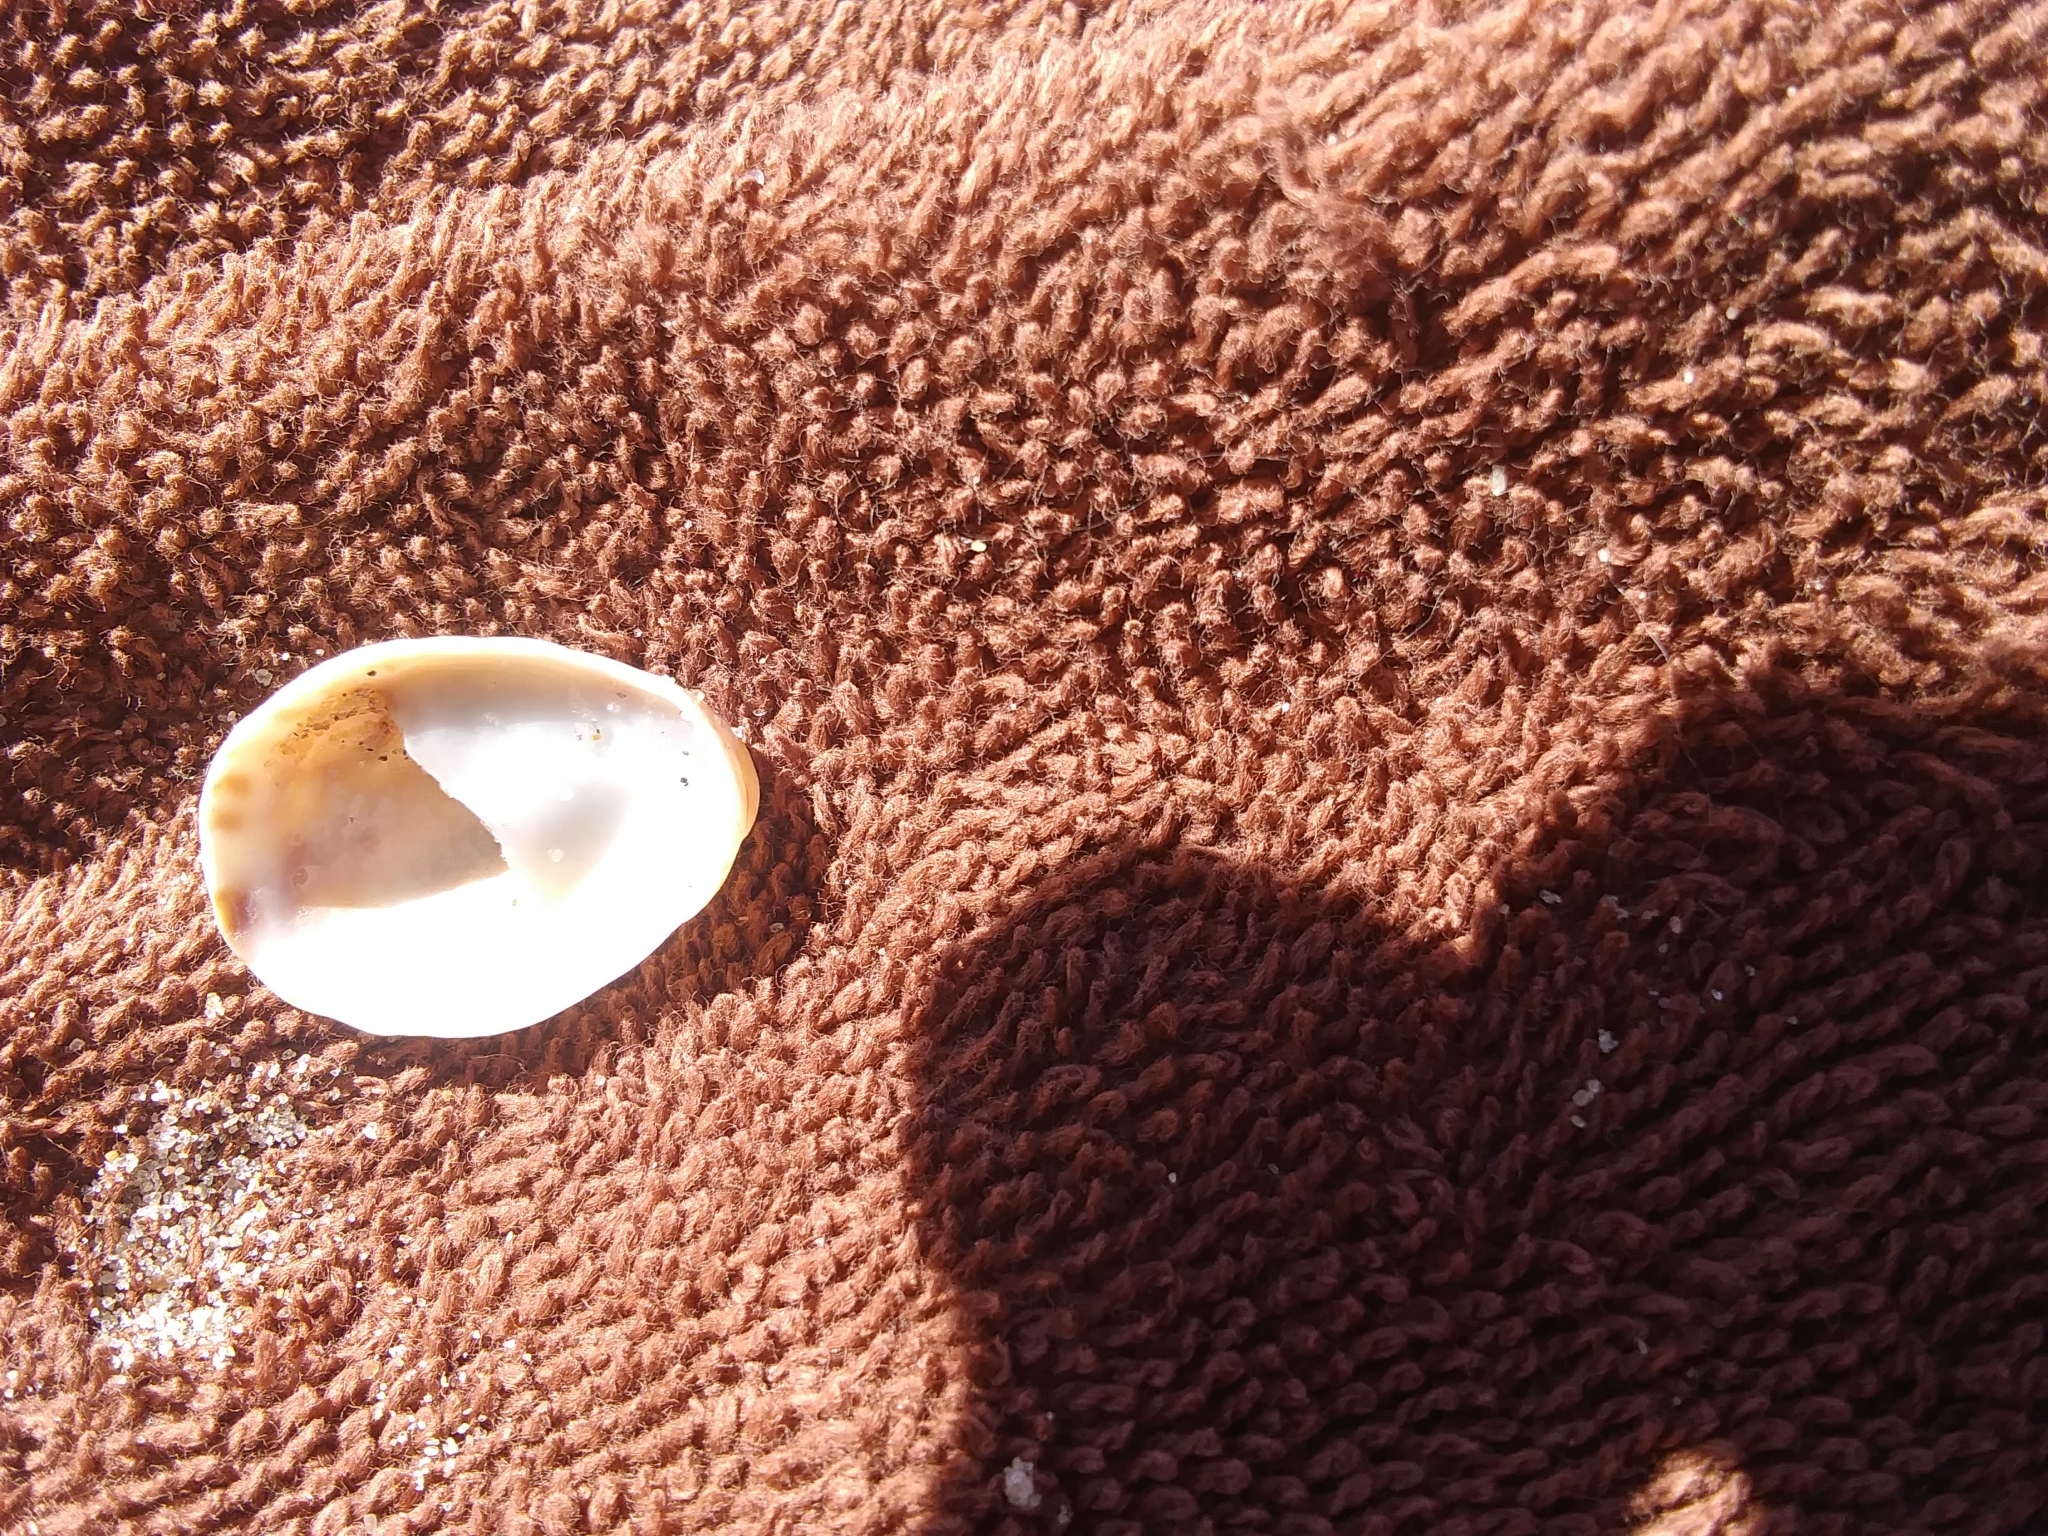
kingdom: Animalia
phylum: Mollusca
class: Gastropoda
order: Littorinimorpha
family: Calyptraeidae
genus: Crepidula
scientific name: Crepidula fornicata
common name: Slipper limpet
